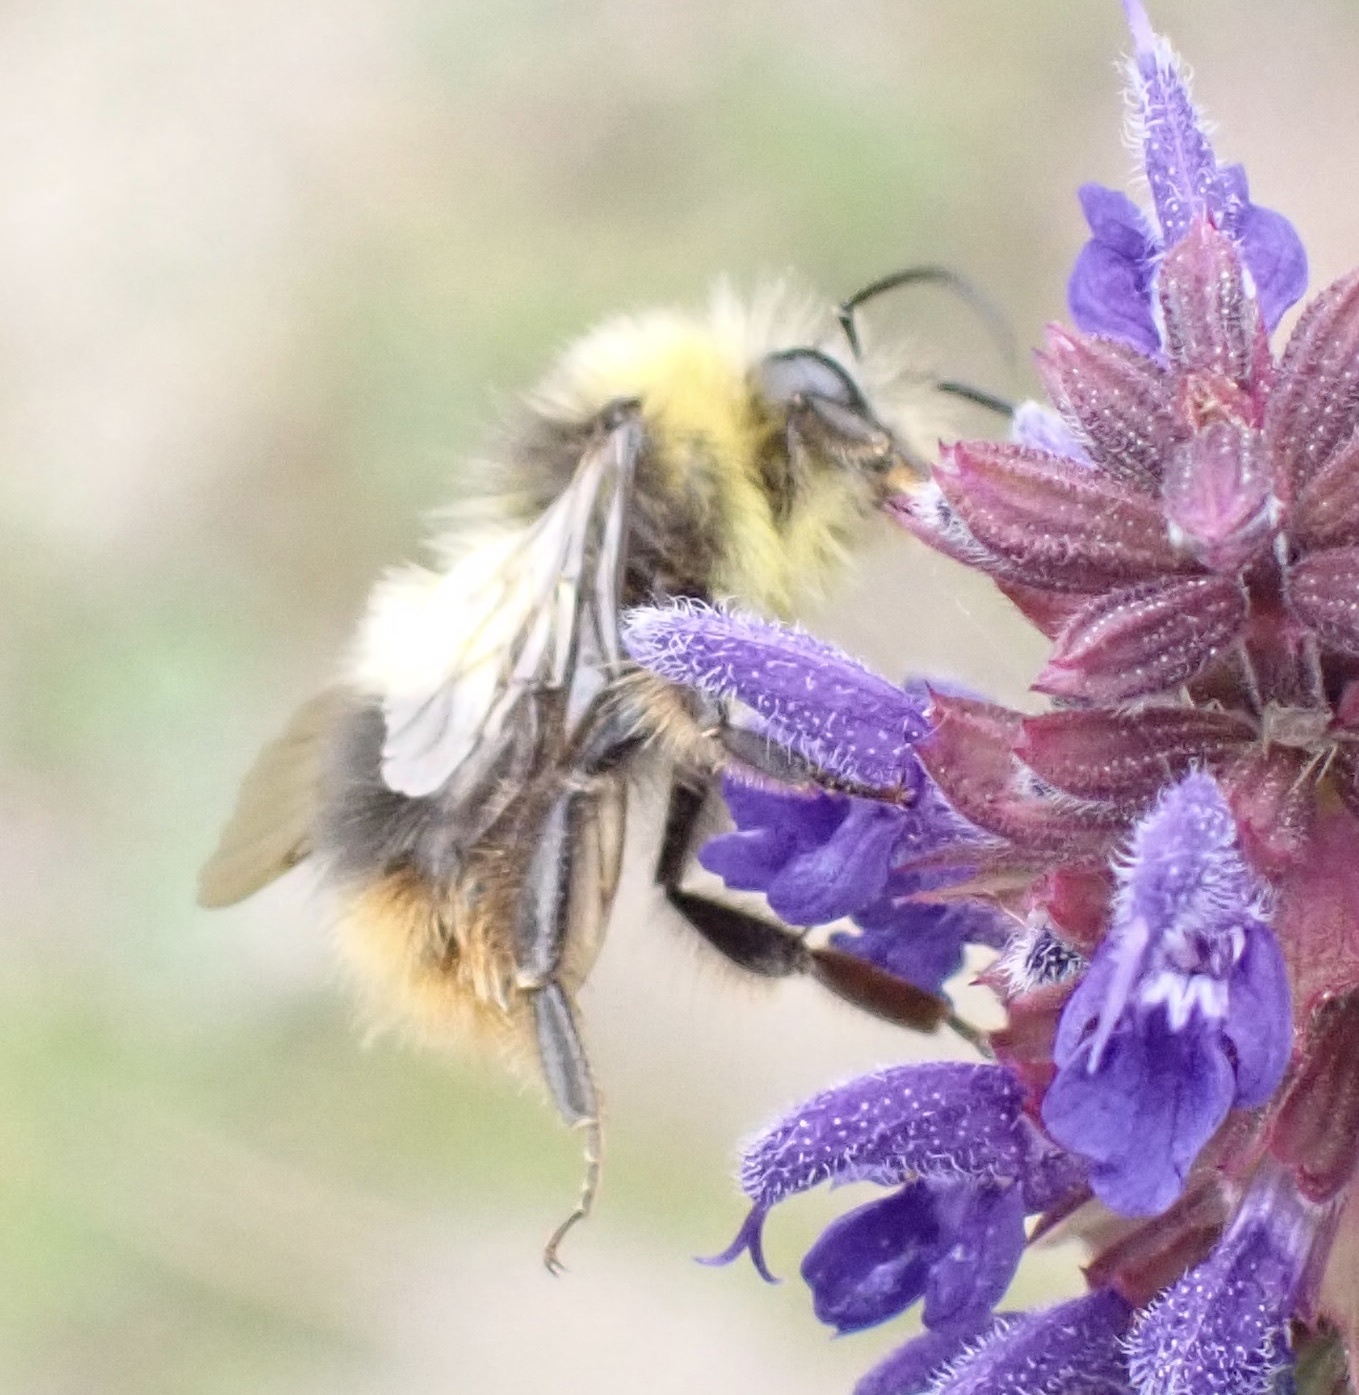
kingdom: Animalia
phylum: Arthropoda
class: Insecta
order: Hymenoptera
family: Apidae
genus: Bombus
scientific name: Bombus pratorum
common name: Early humble-bee
